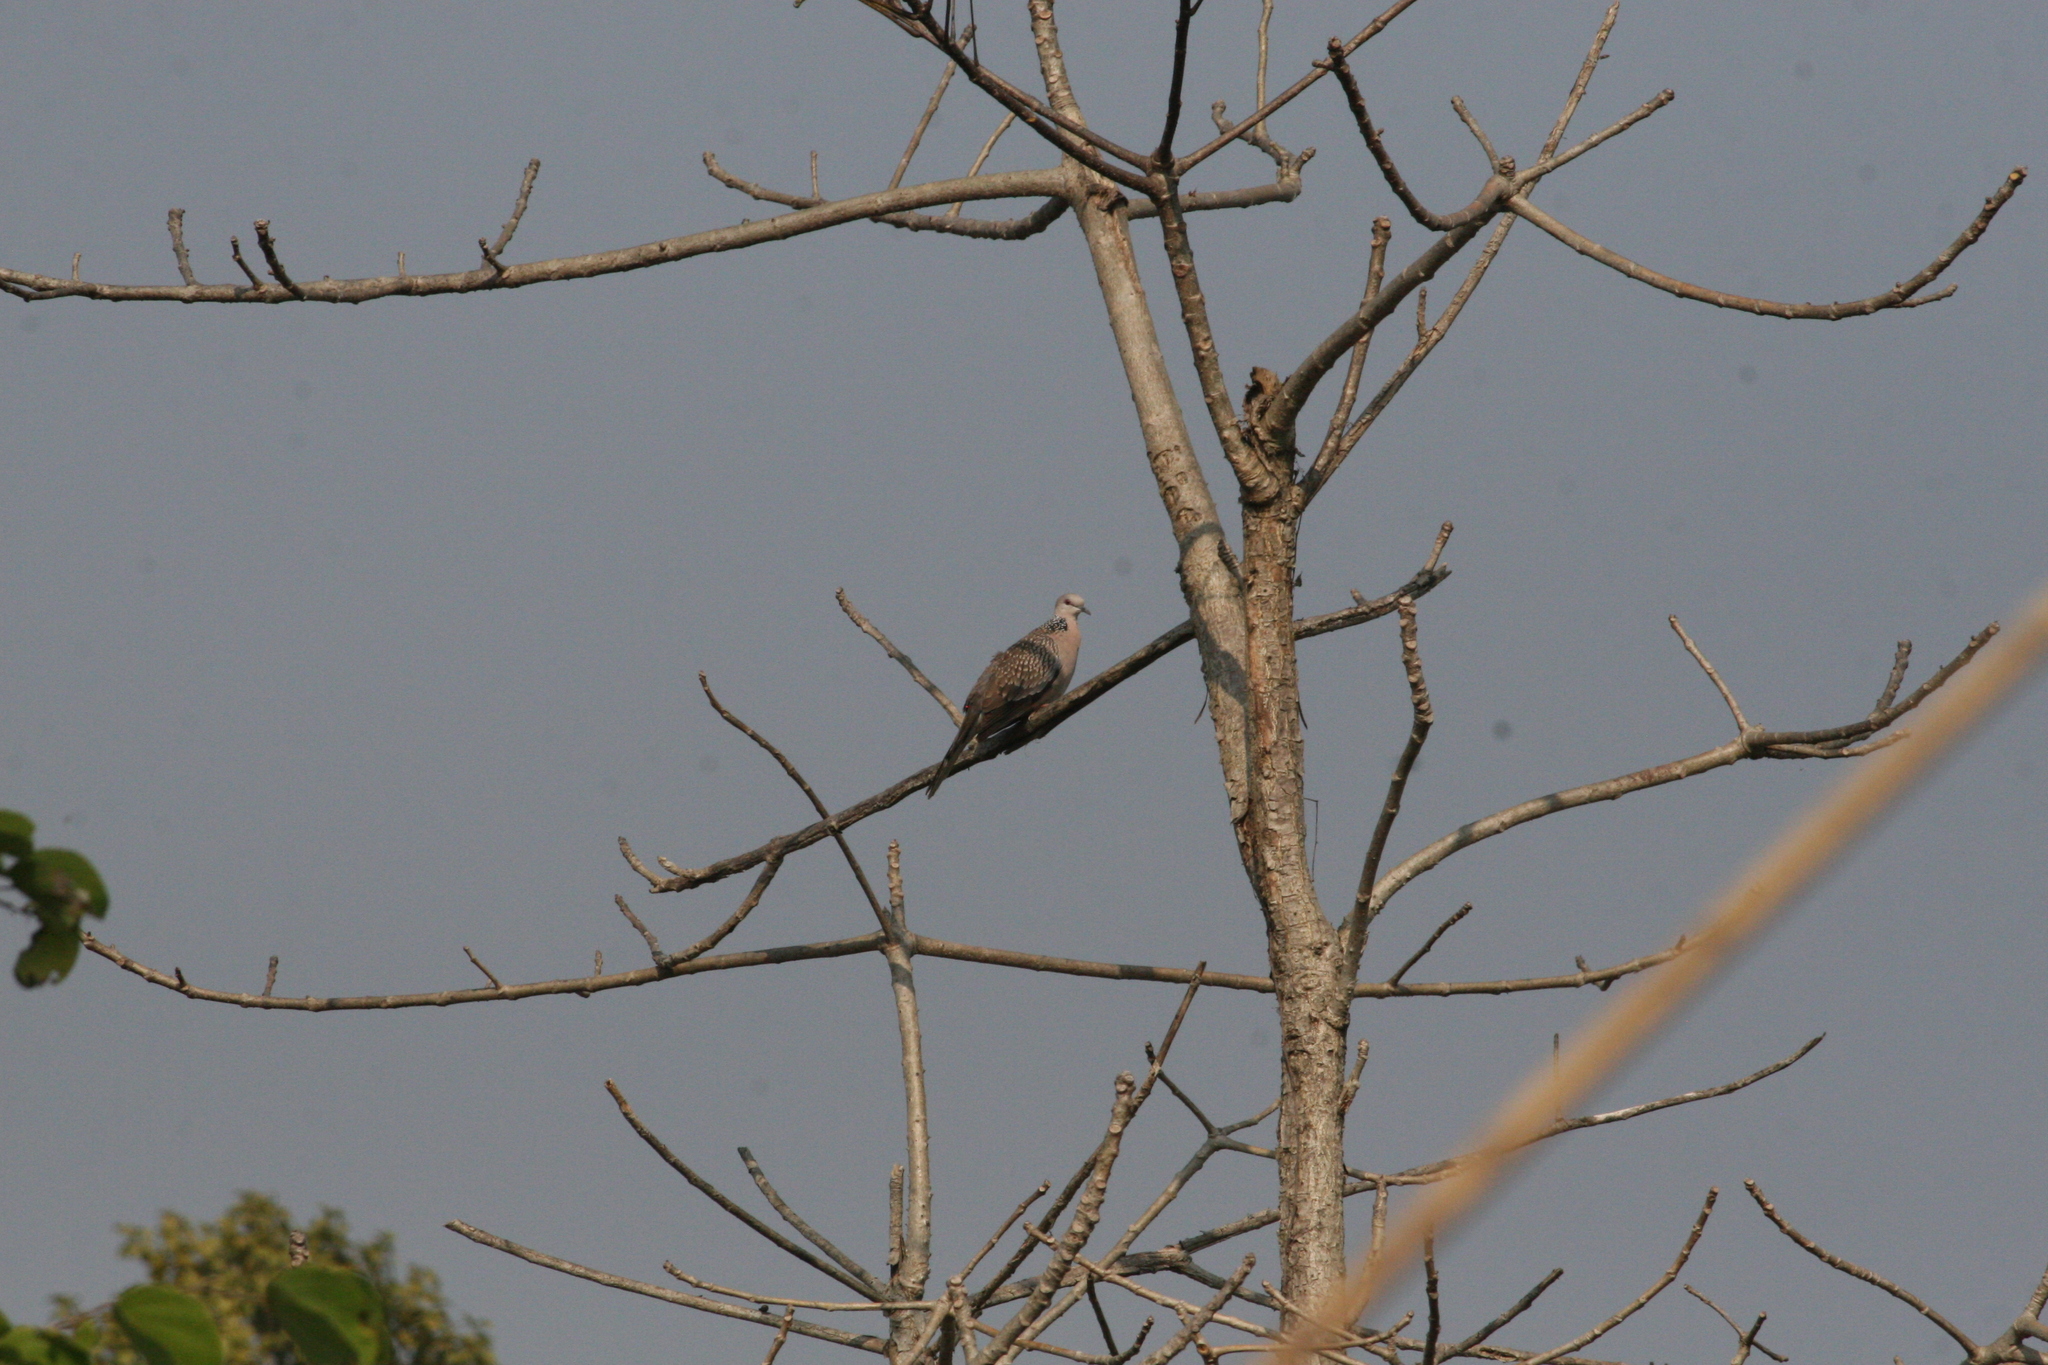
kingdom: Animalia
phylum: Chordata
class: Aves
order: Columbiformes
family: Columbidae
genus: Spilopelia
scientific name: Spilopelia chinensis
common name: Spotted dove
